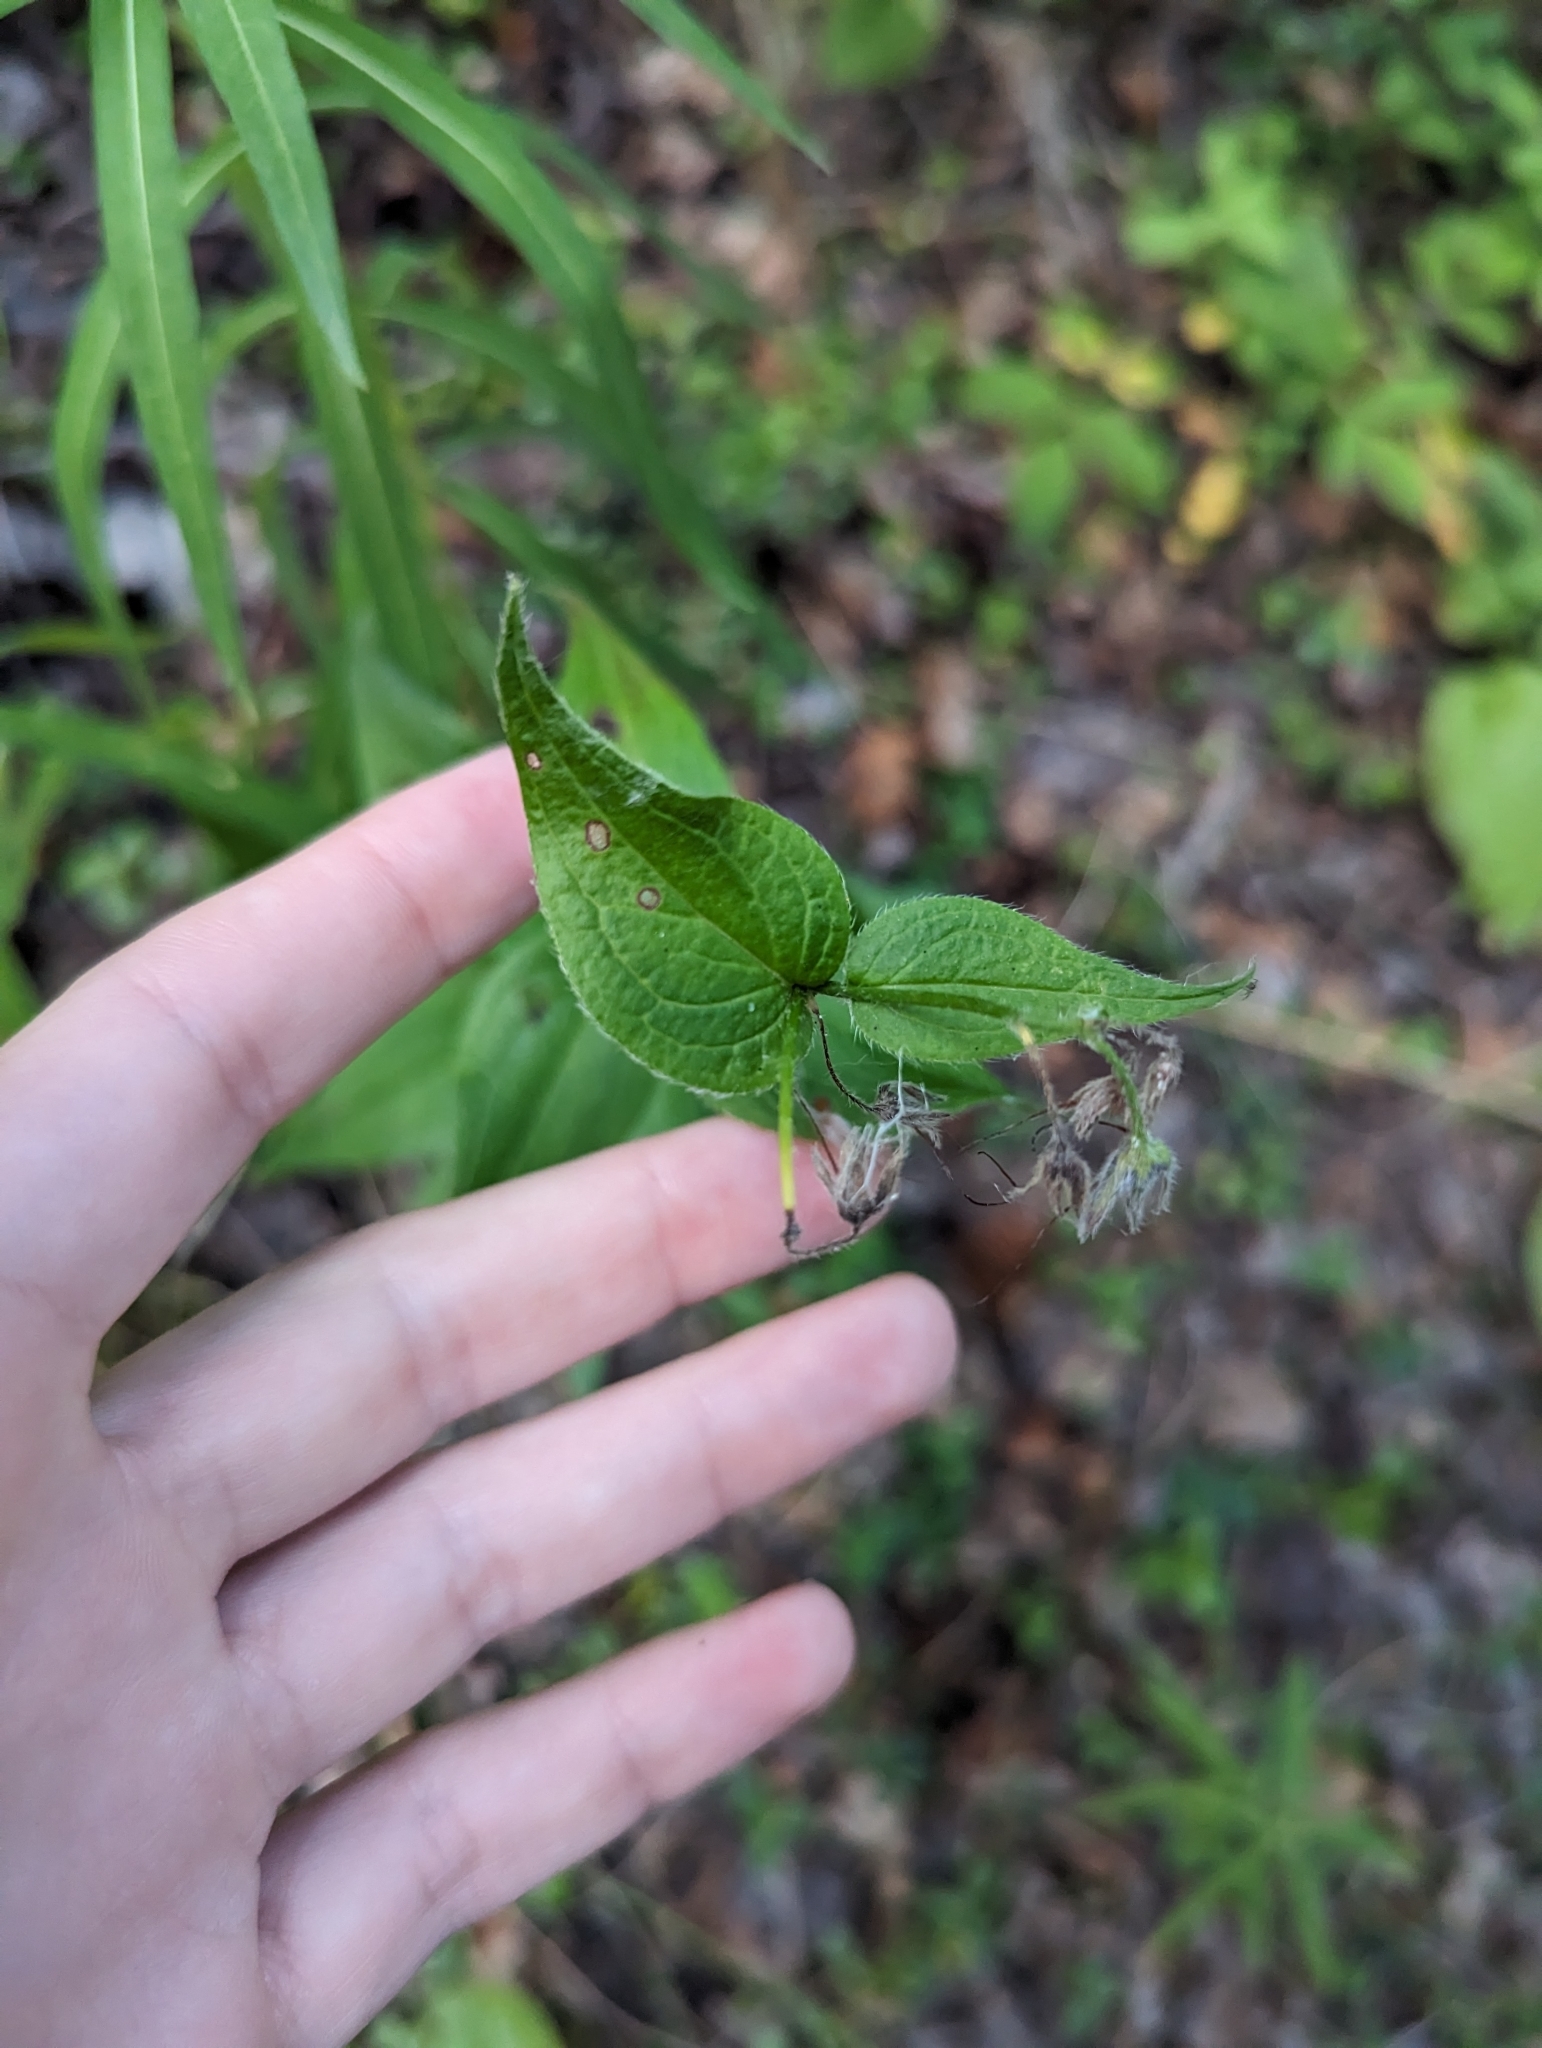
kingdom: Plantae
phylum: Tracheophyta
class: Magnoliopsida
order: Boraginales
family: Boraginaceae
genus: Mertensia
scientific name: Mertensia paniculata
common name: Panicled bluebells
